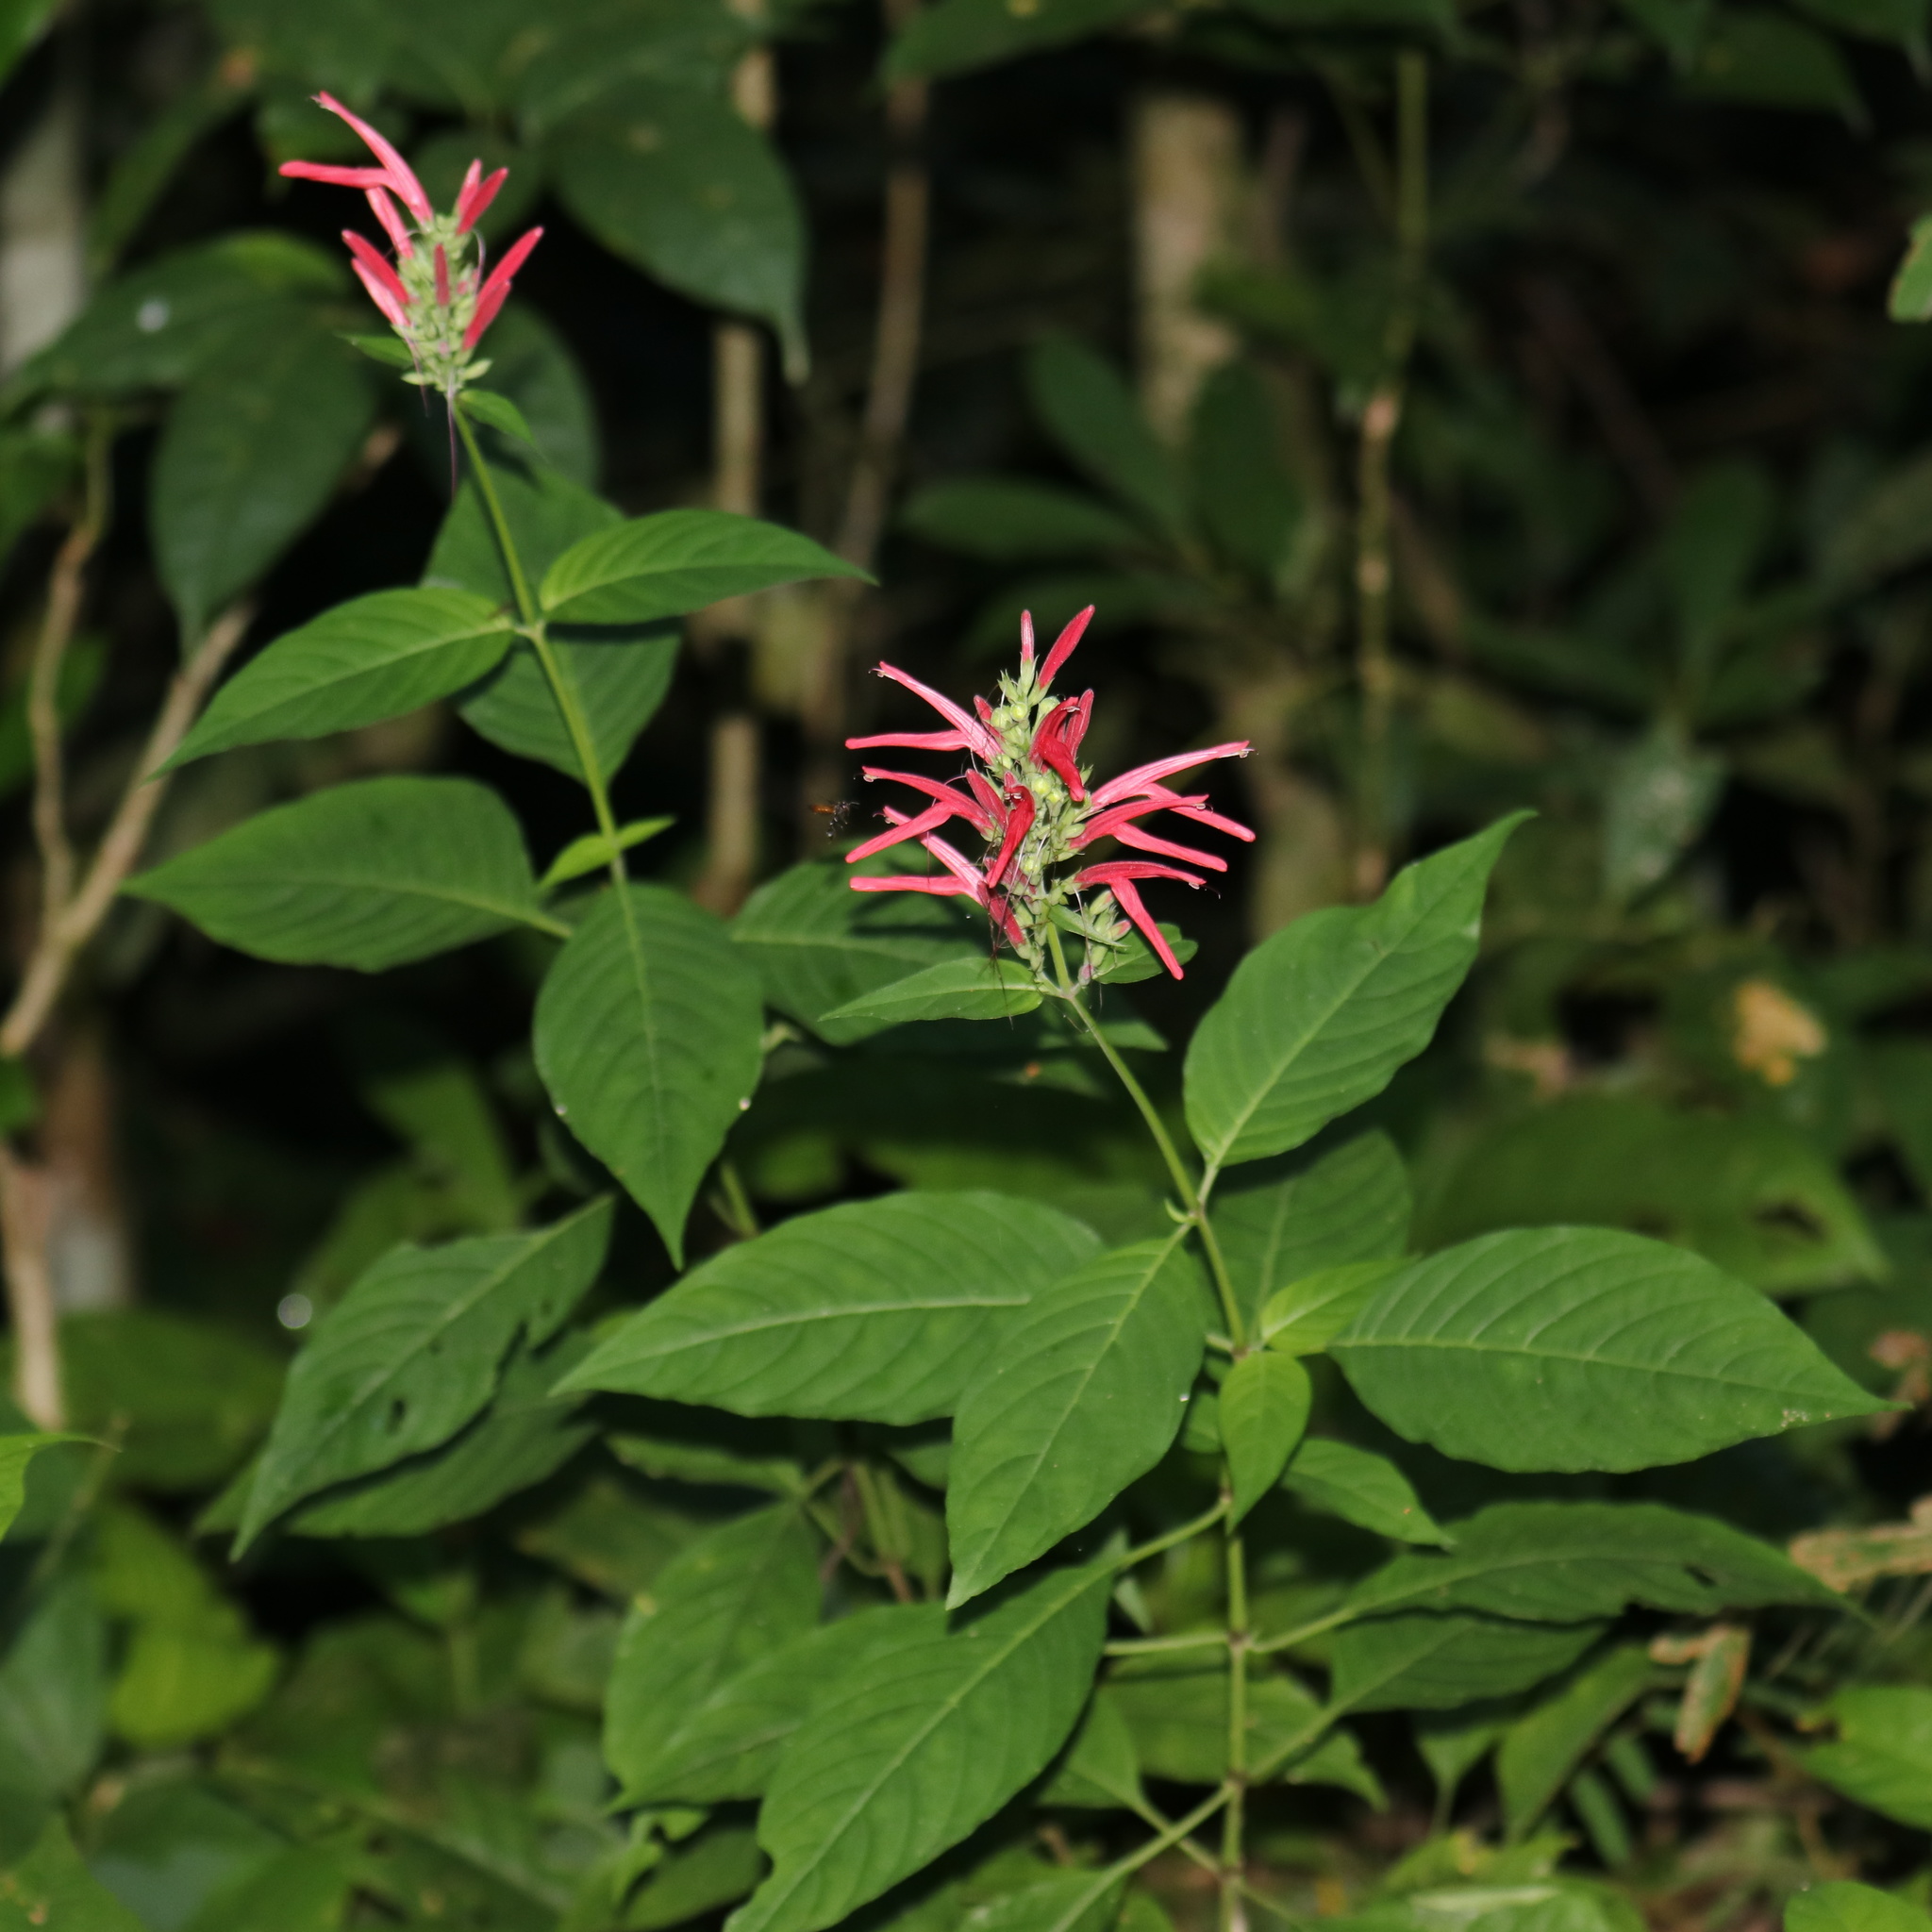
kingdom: Plantae
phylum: Tracheophyta
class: Magnoliopsida
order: Lamiales
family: Acanthaceae
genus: Dianthera
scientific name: Dianthera secunda
